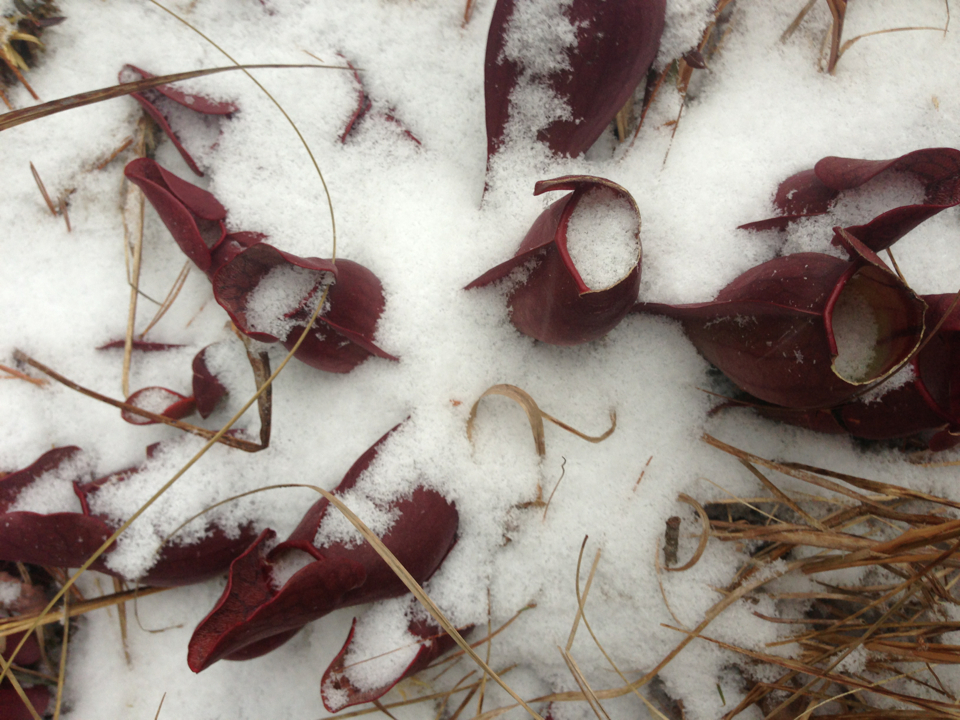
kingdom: Plantae
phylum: Tracheophyta
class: Magnoliopsida
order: Ericales
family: Sarraceniaceae
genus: Sarracenia
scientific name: Sarracenia purpurea
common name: Pitcherplant
